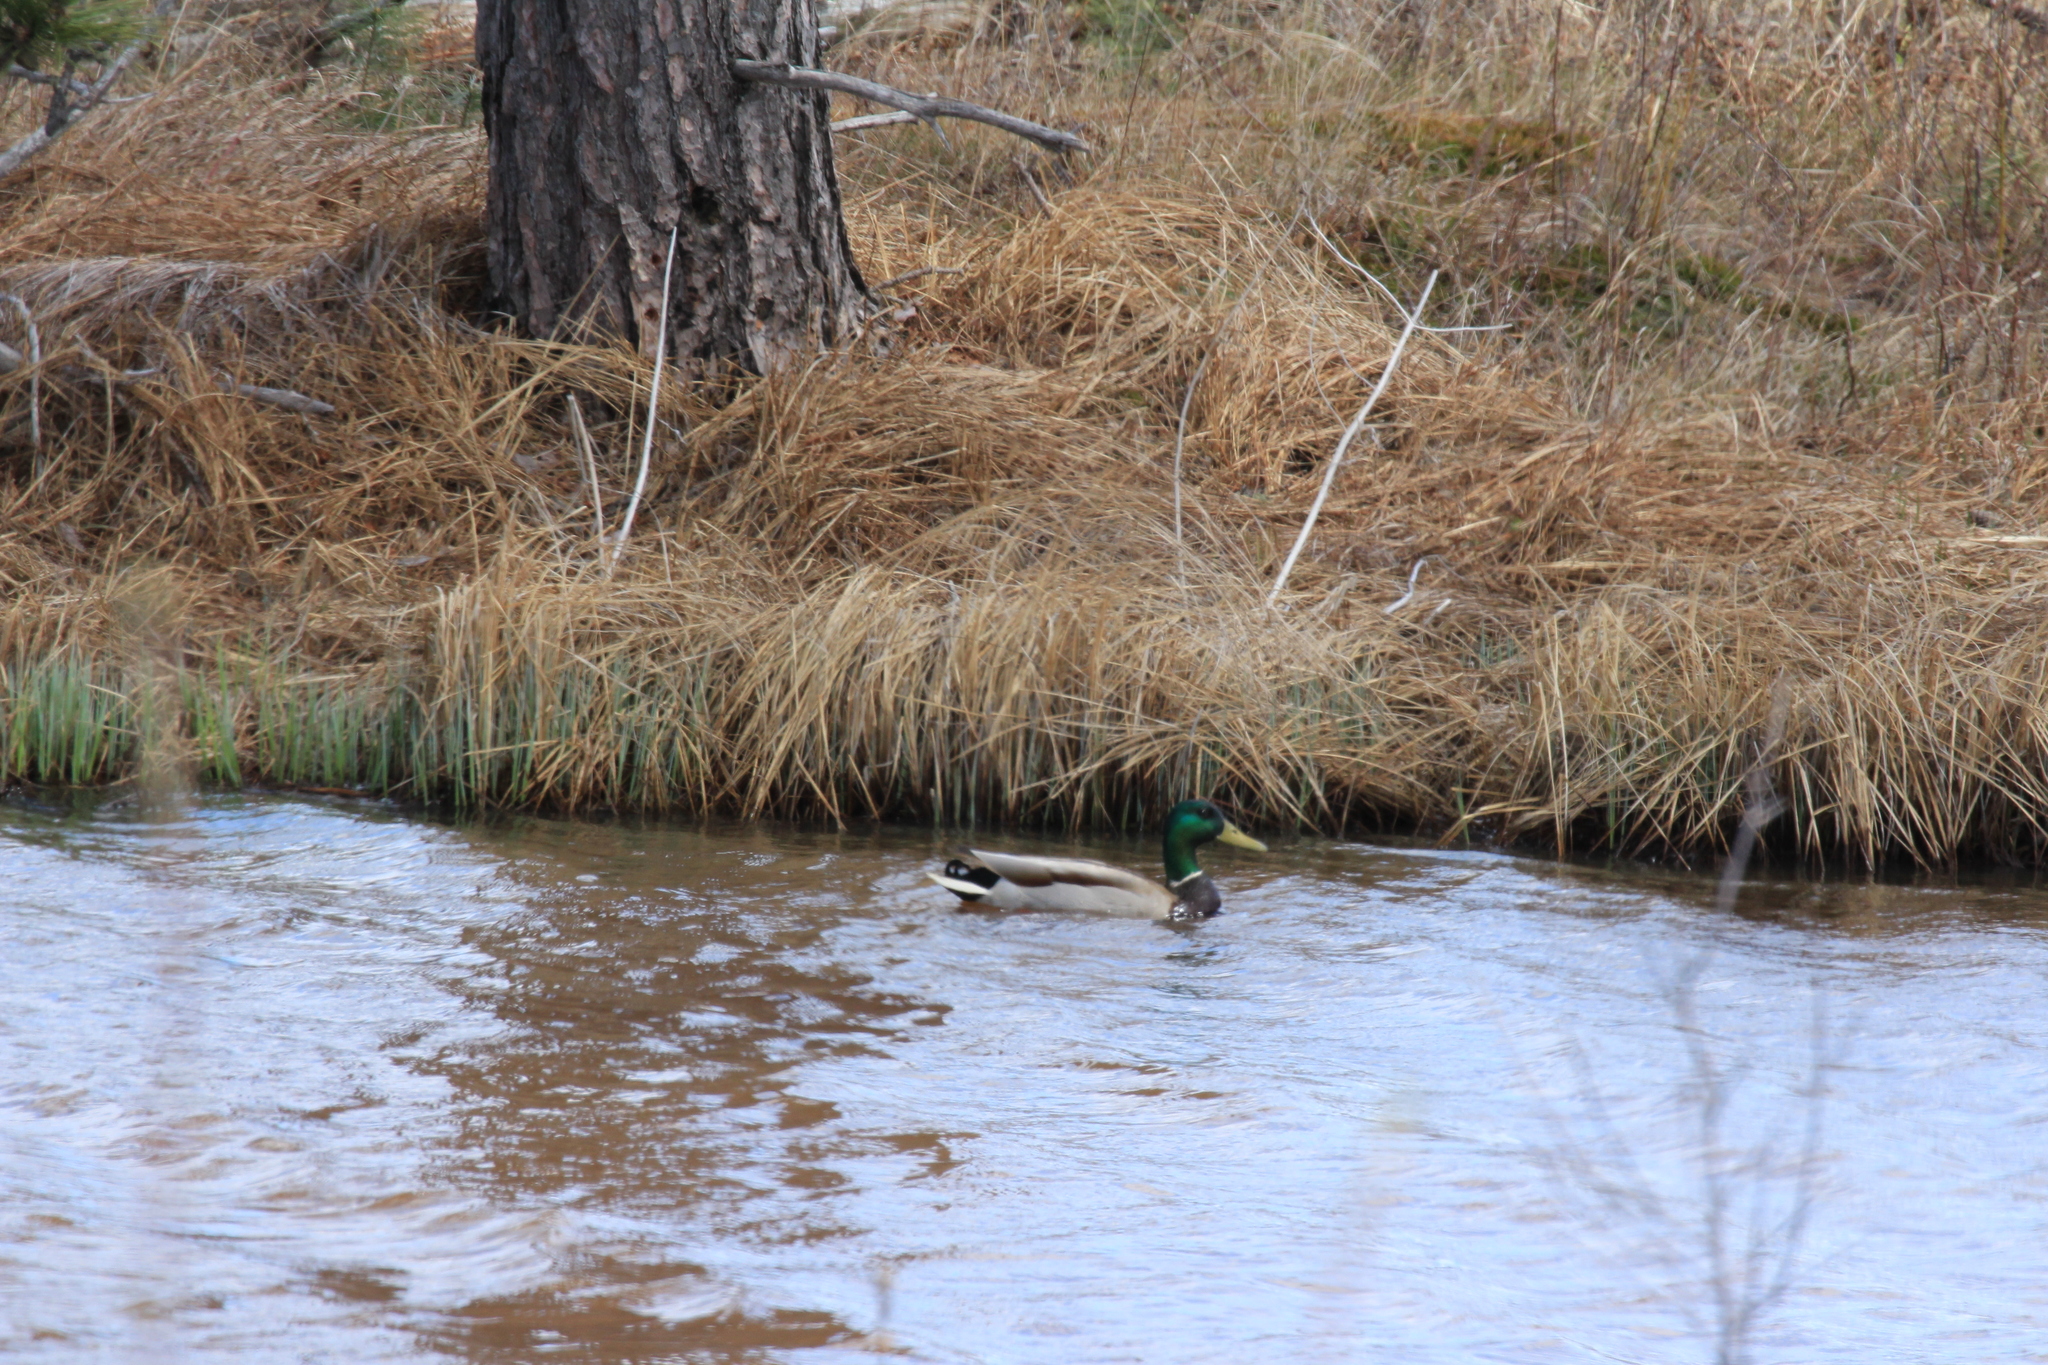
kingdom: Animalia
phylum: Chordata
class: Aves
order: Anseriformes
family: Anatidae
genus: Anas
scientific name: Anas platyrhynchos
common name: Mallard
